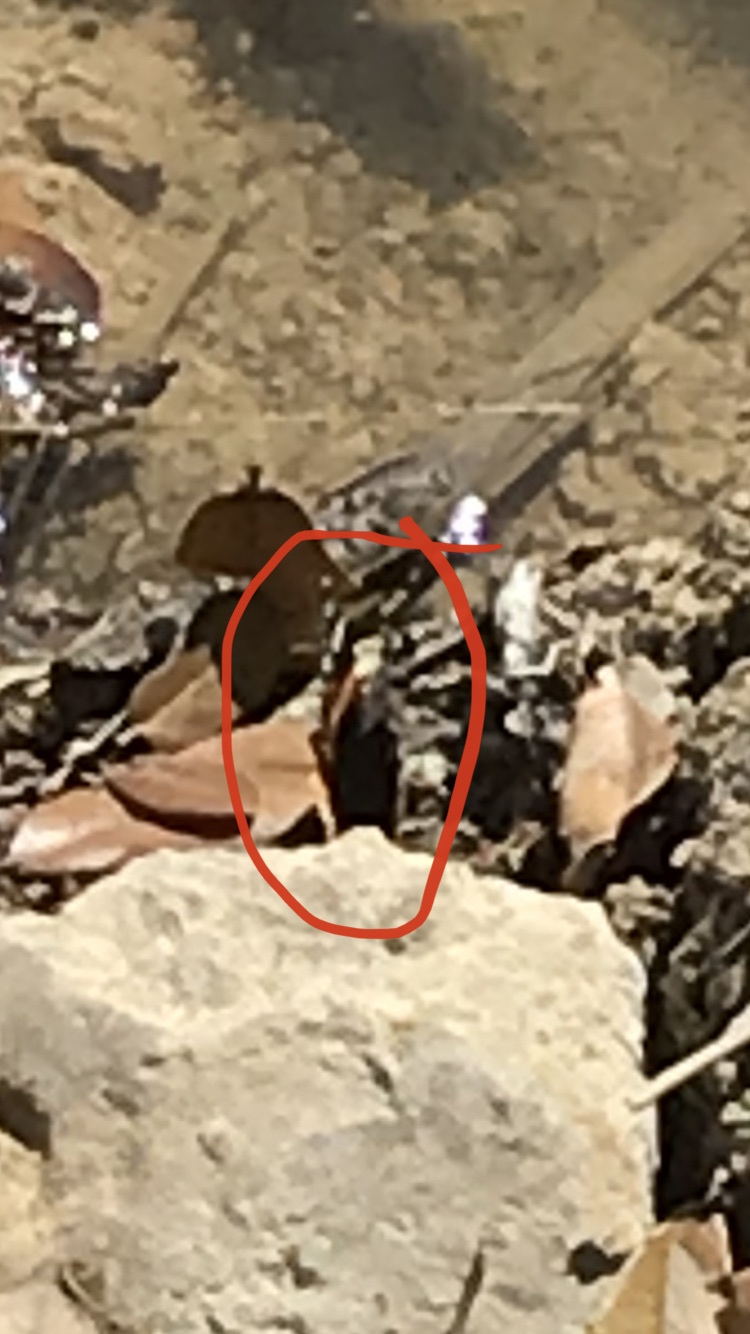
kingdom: Animalia
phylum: Arthropoda
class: Insecta
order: Lepidoptera
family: Nymphalidae
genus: Vanessa
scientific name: Vanessa atalanta
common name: Red admiral
